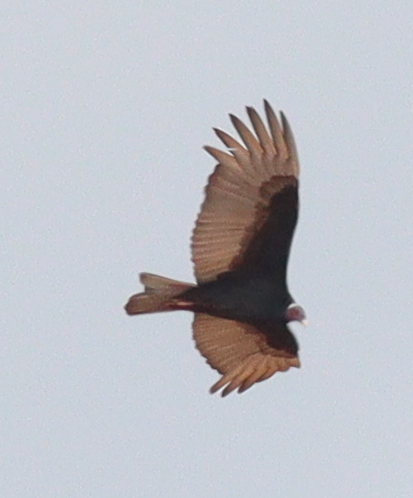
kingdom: Animalia
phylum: Chordata
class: Aves
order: Accipitriformes
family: Cathartidae
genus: Cathartes
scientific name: Cathartes aura
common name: Turkey vulture
